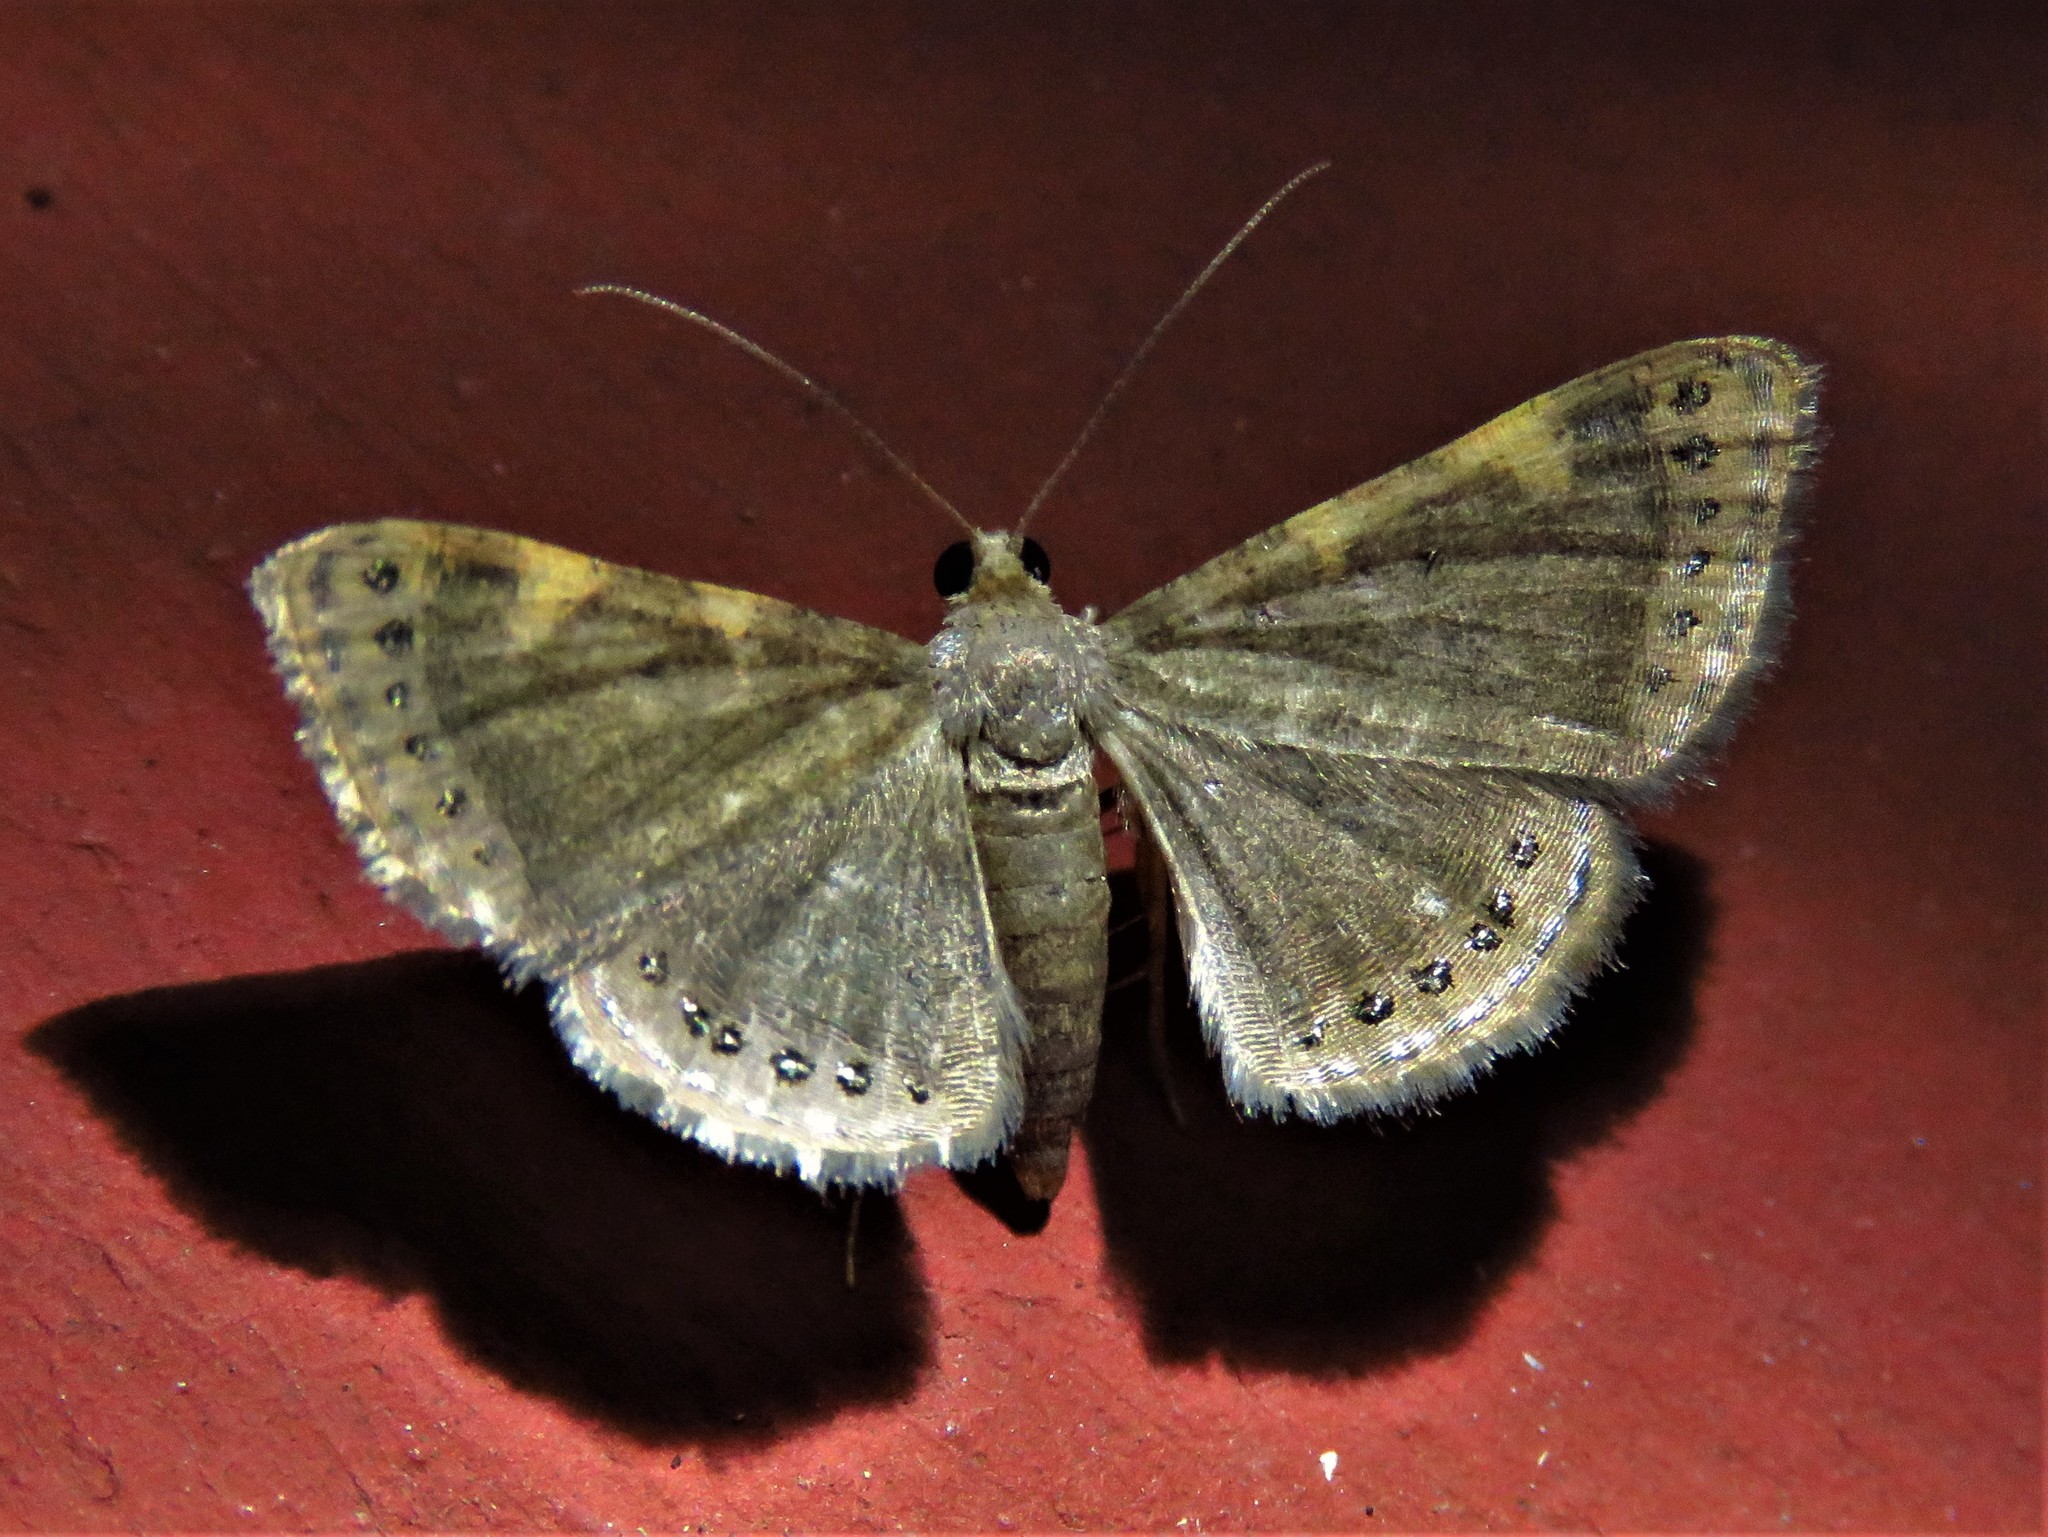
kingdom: Animalia
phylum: Arthropoda
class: Insecta
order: Lepidoptera
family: Geometridae
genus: Molybdogompha
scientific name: Molybdogompha polymygmata
